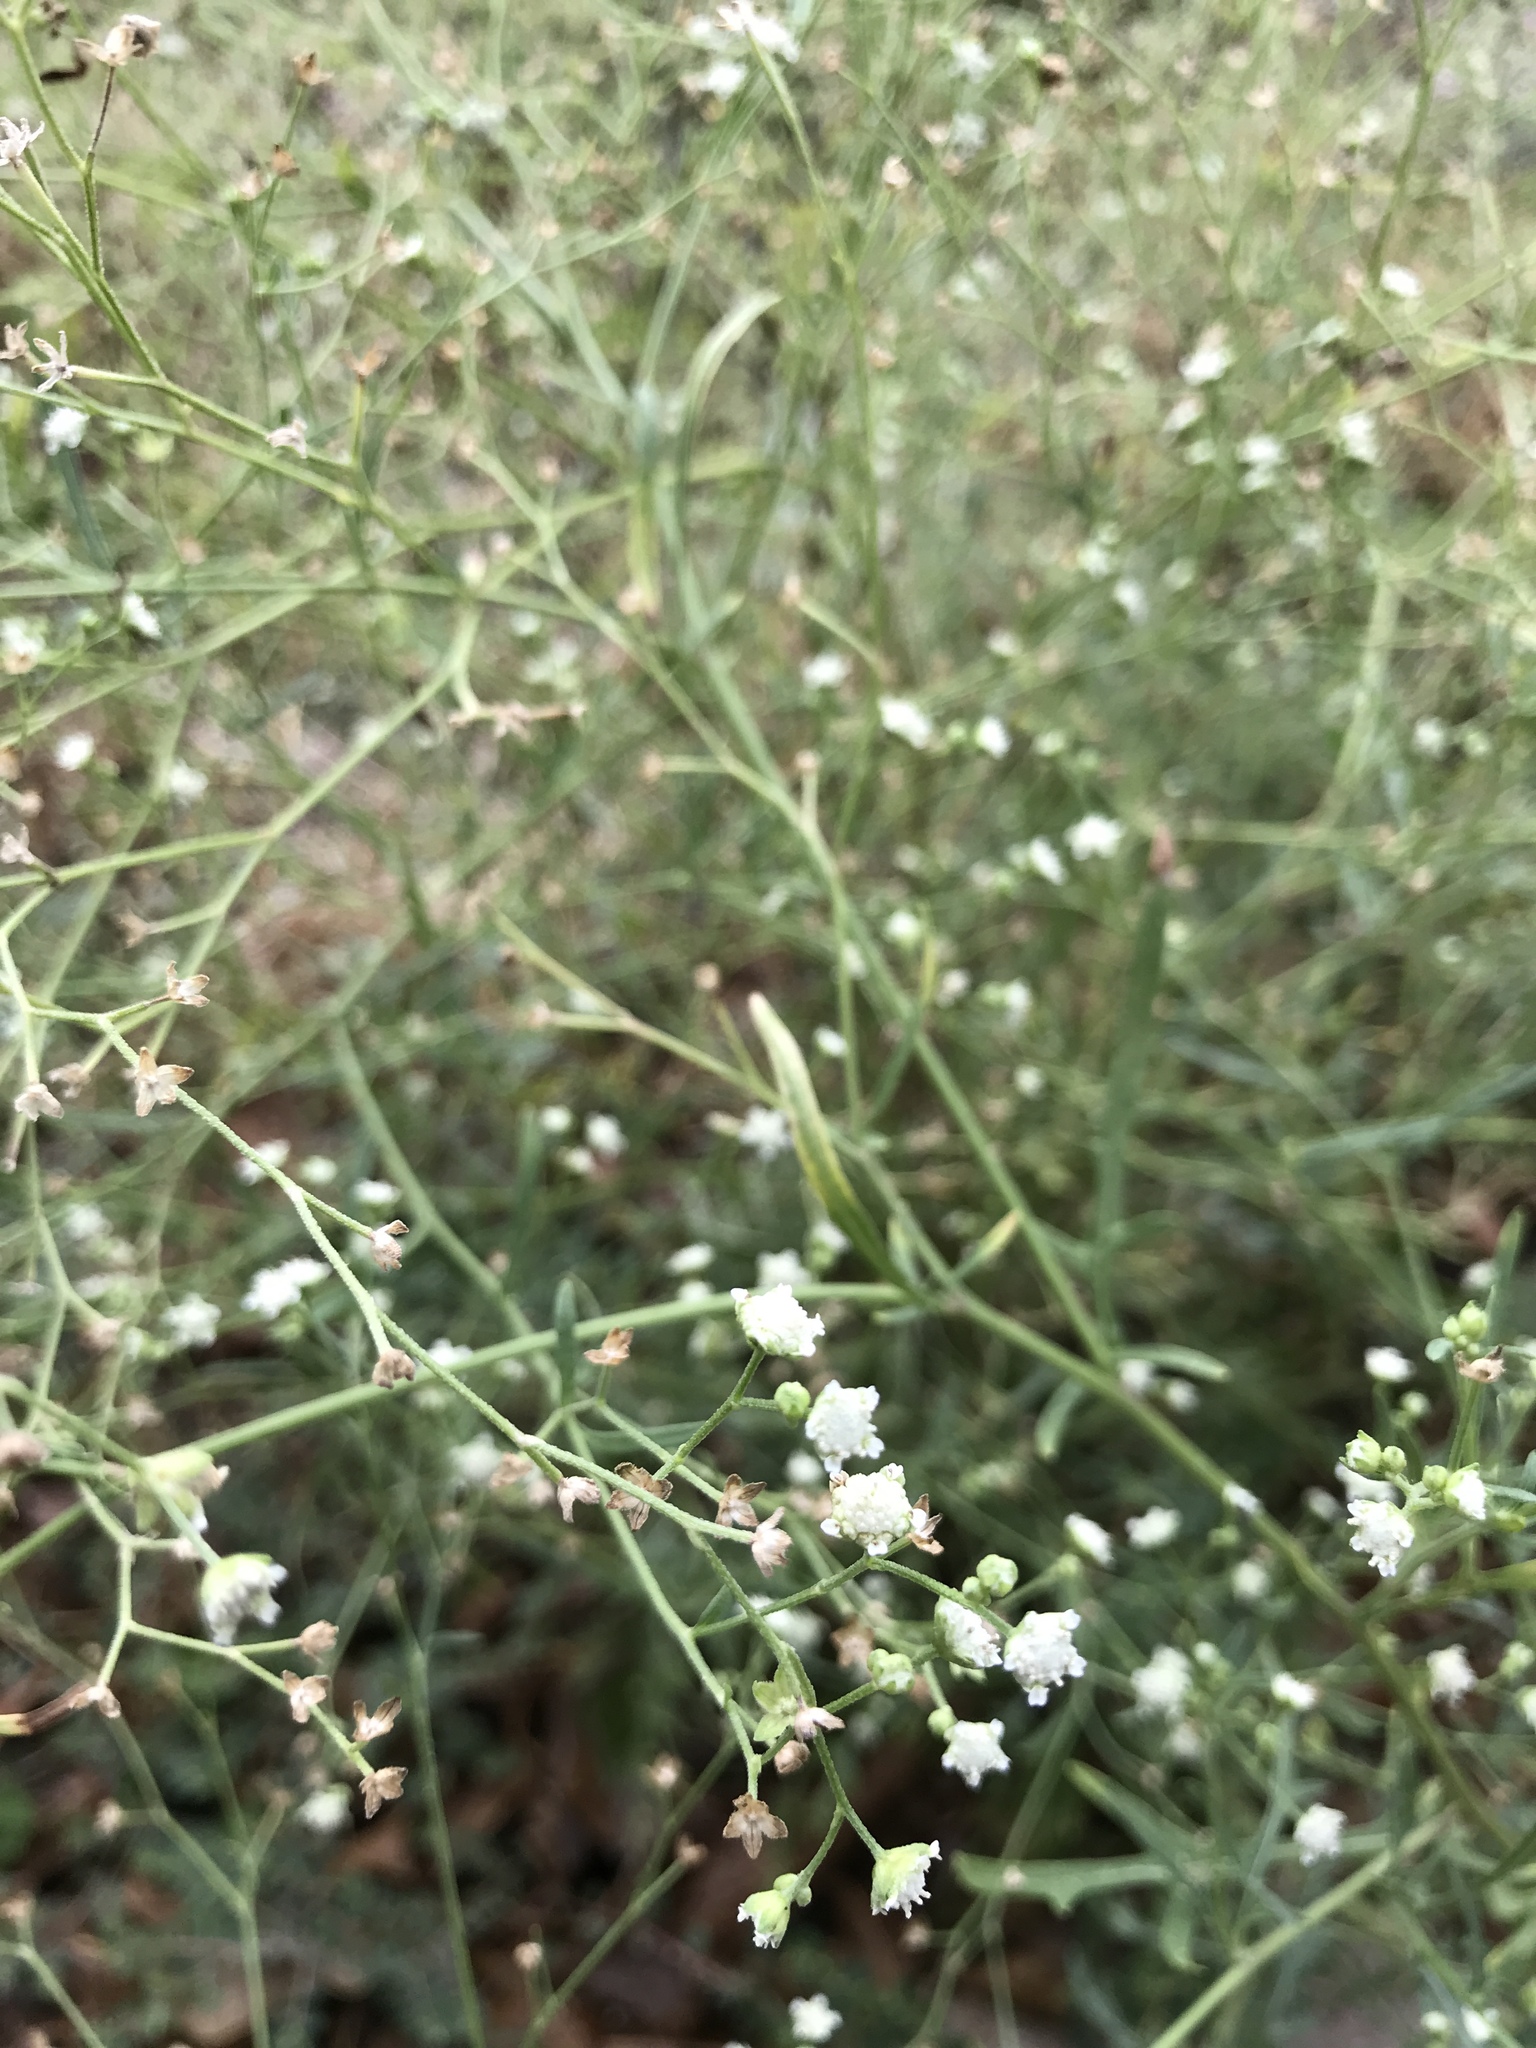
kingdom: Plantae
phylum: Tracheophyta
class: Magnoliopsida
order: Asterales
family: Asteraceae
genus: Parthenium
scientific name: Parthenium hysterophorus
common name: Santa maria feverfew
